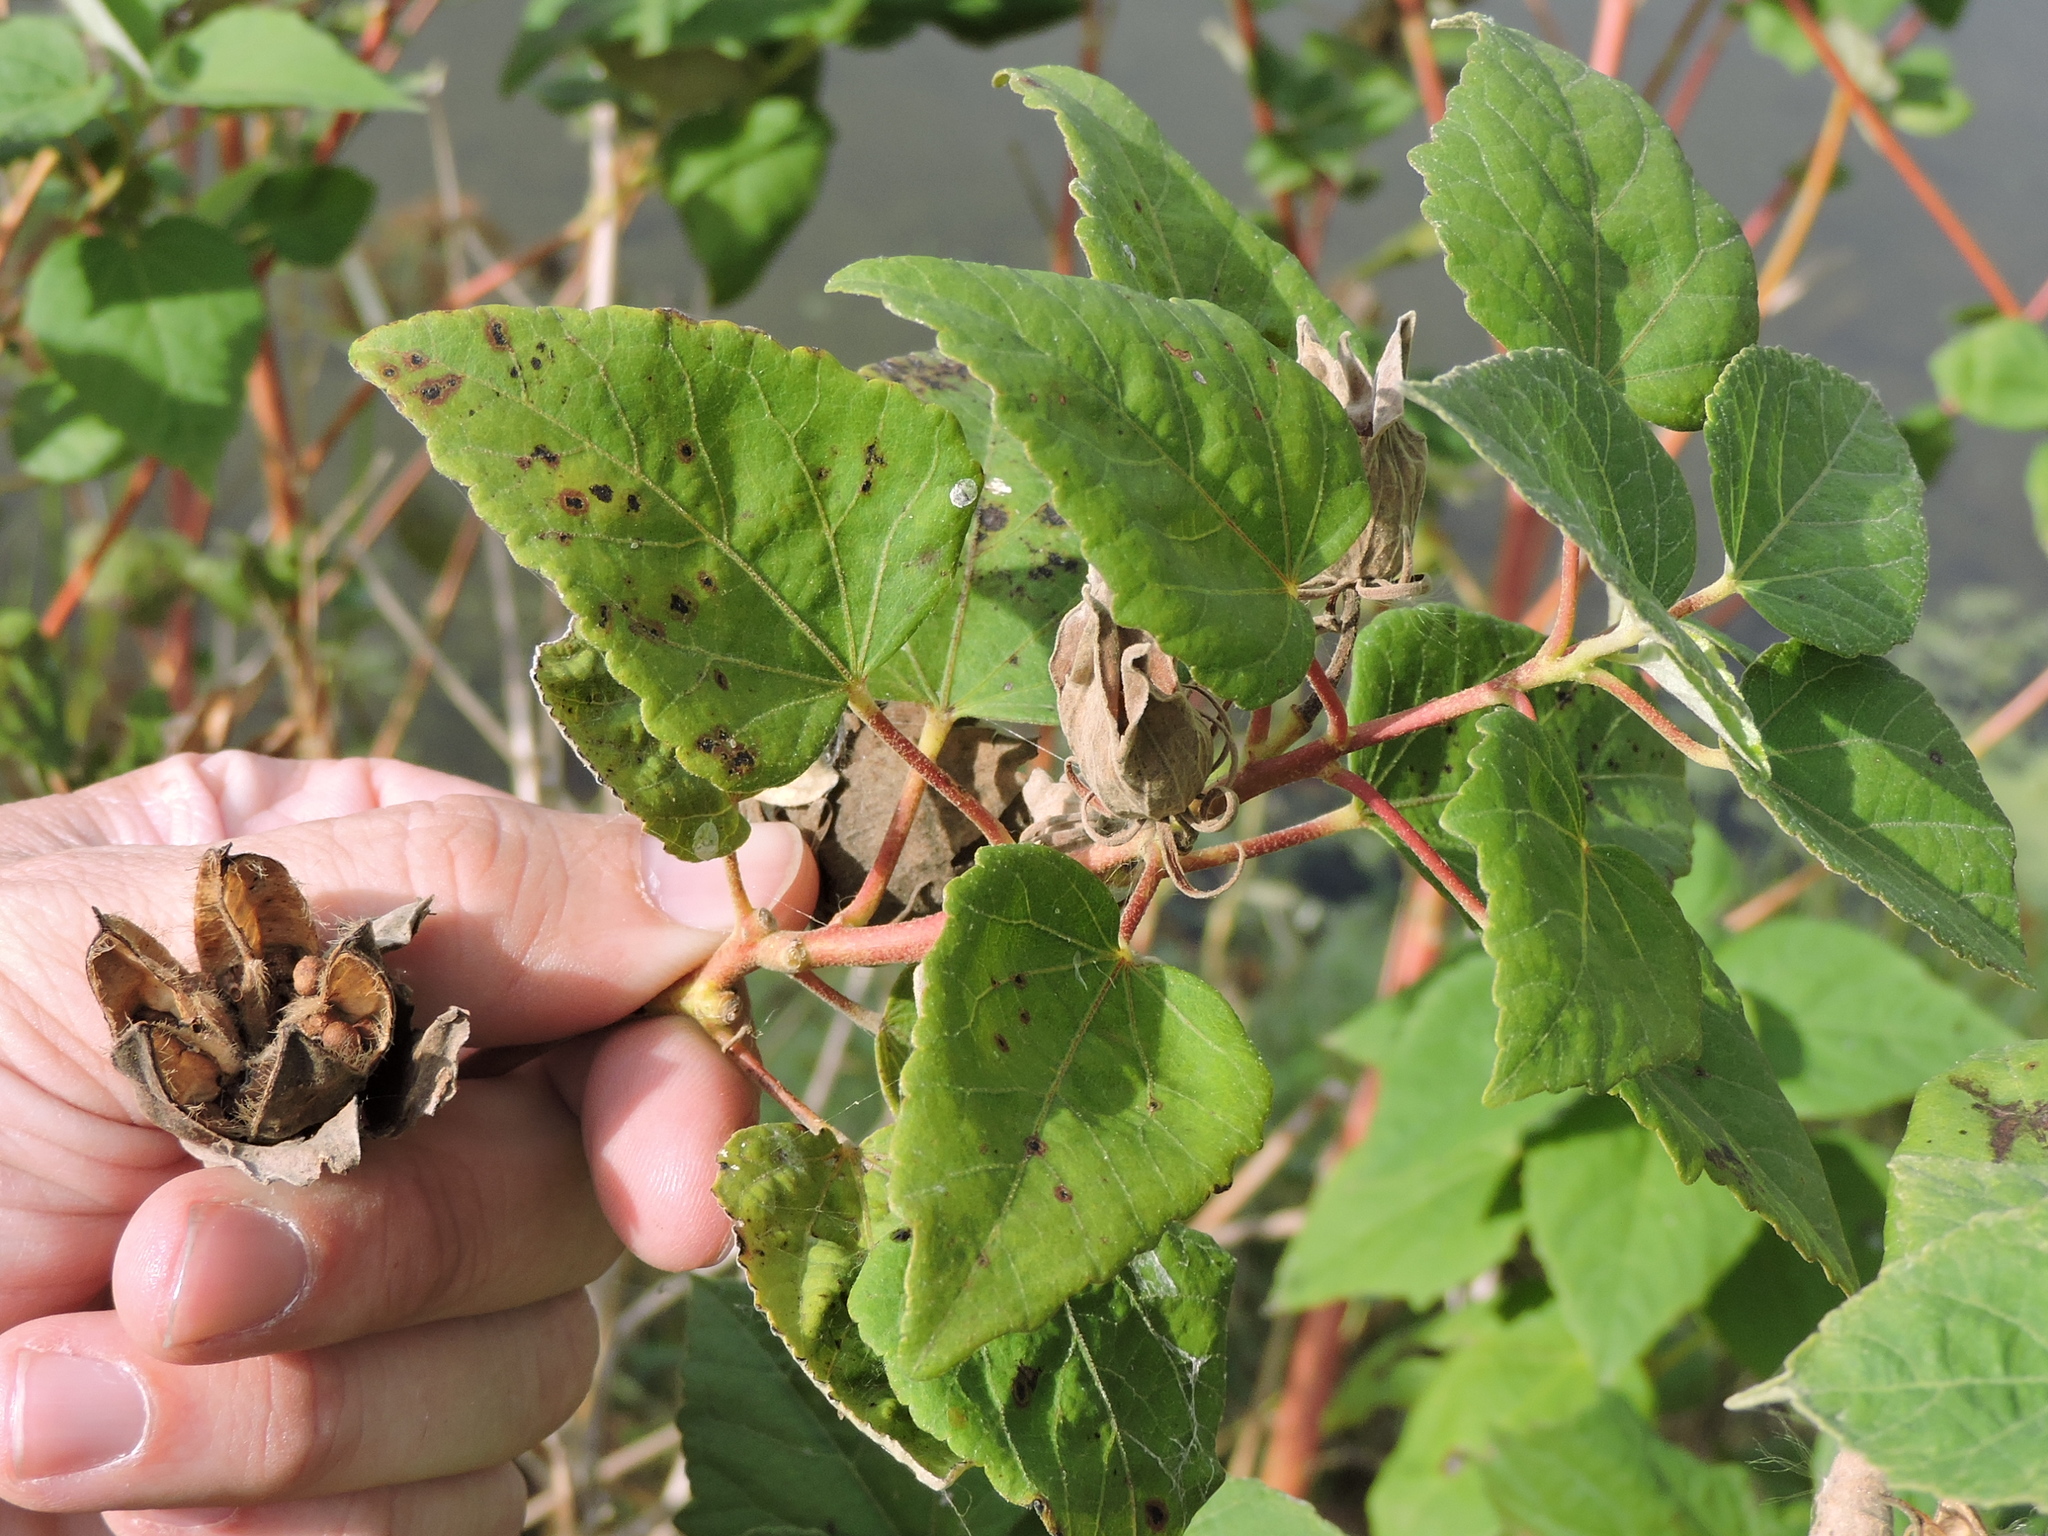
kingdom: Plantae
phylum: Tracheophyta
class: Magnoliopsida
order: Malvales
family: Malvaceae
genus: Hibiscus
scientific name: Hibiscus moscheutos
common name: Common rose-mallow
